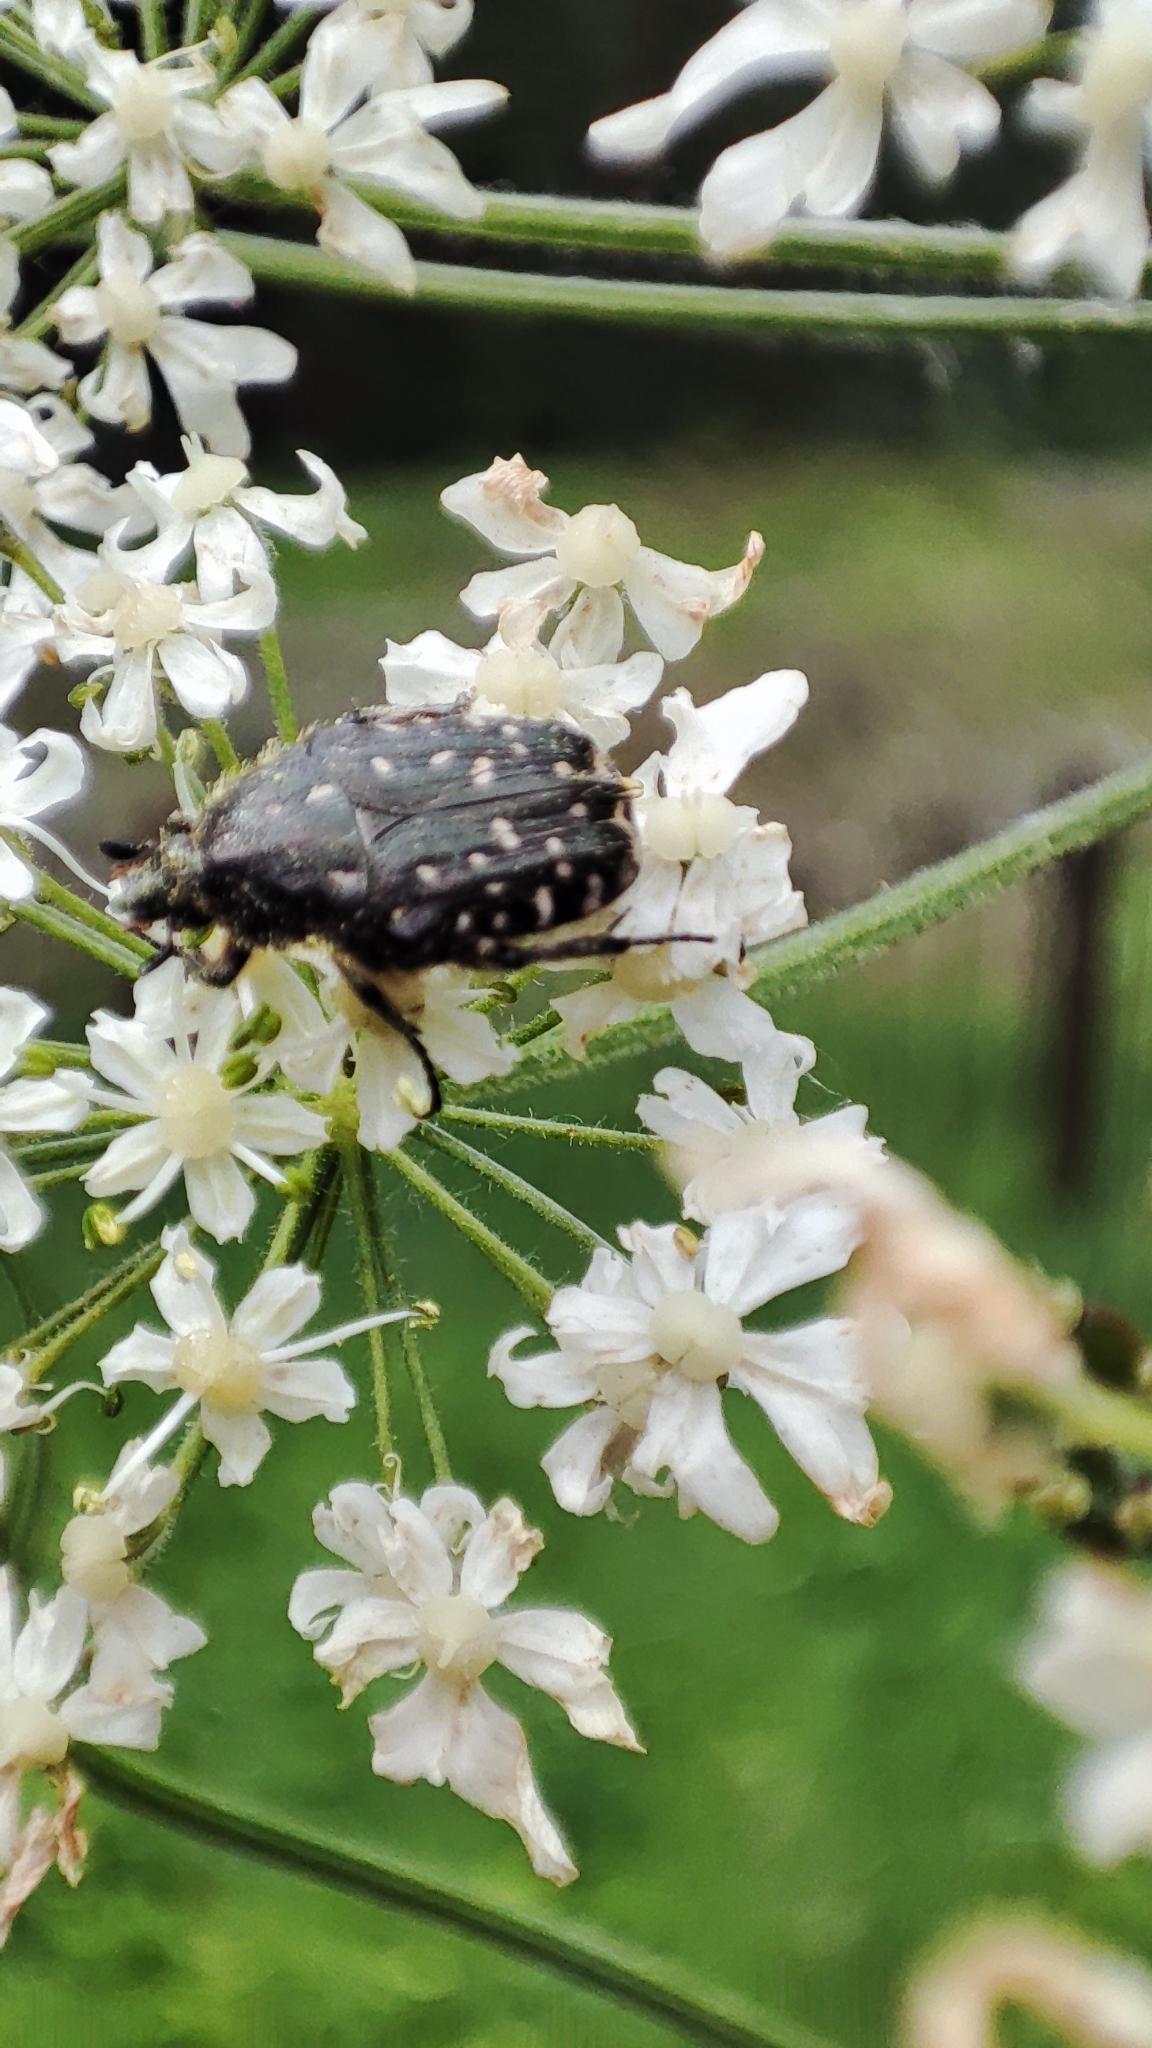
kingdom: Animalia
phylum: Arthropoda
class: Insecta
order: Coleoptera
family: Scarabaeidae
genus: Oxythyrea
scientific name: Oxythyrea funesta
